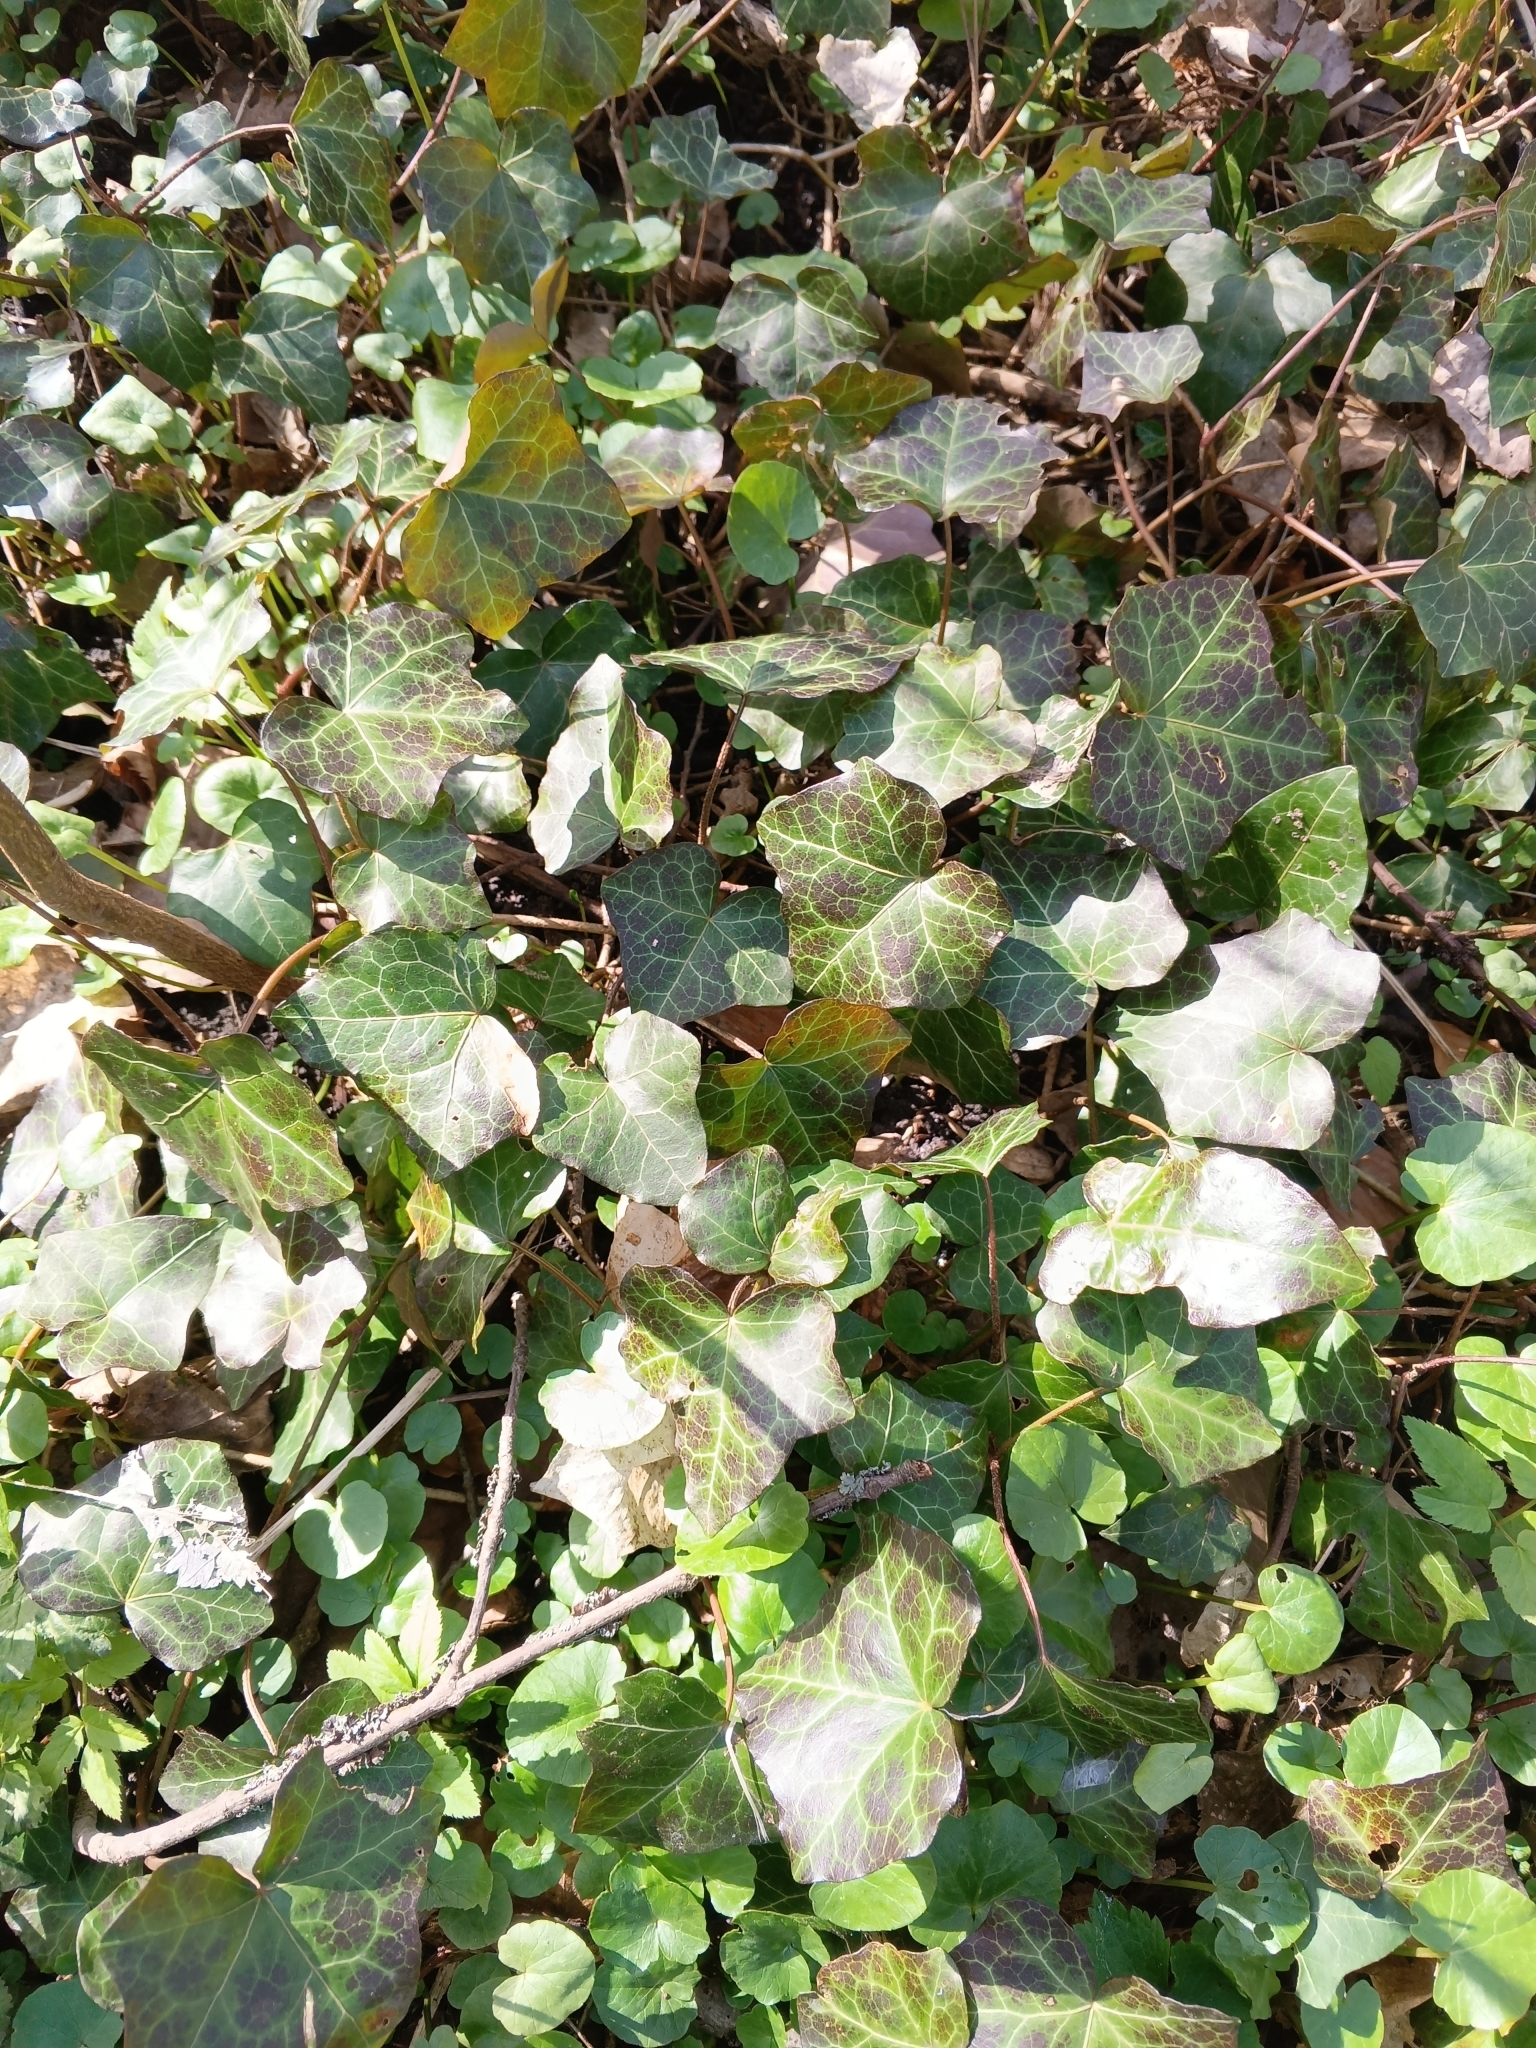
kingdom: Plantae
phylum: Tracheophyta
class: Magnoliopsida
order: Apiales
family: Araliaceae
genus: Hedera
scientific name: Hedera helix
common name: Ivy
